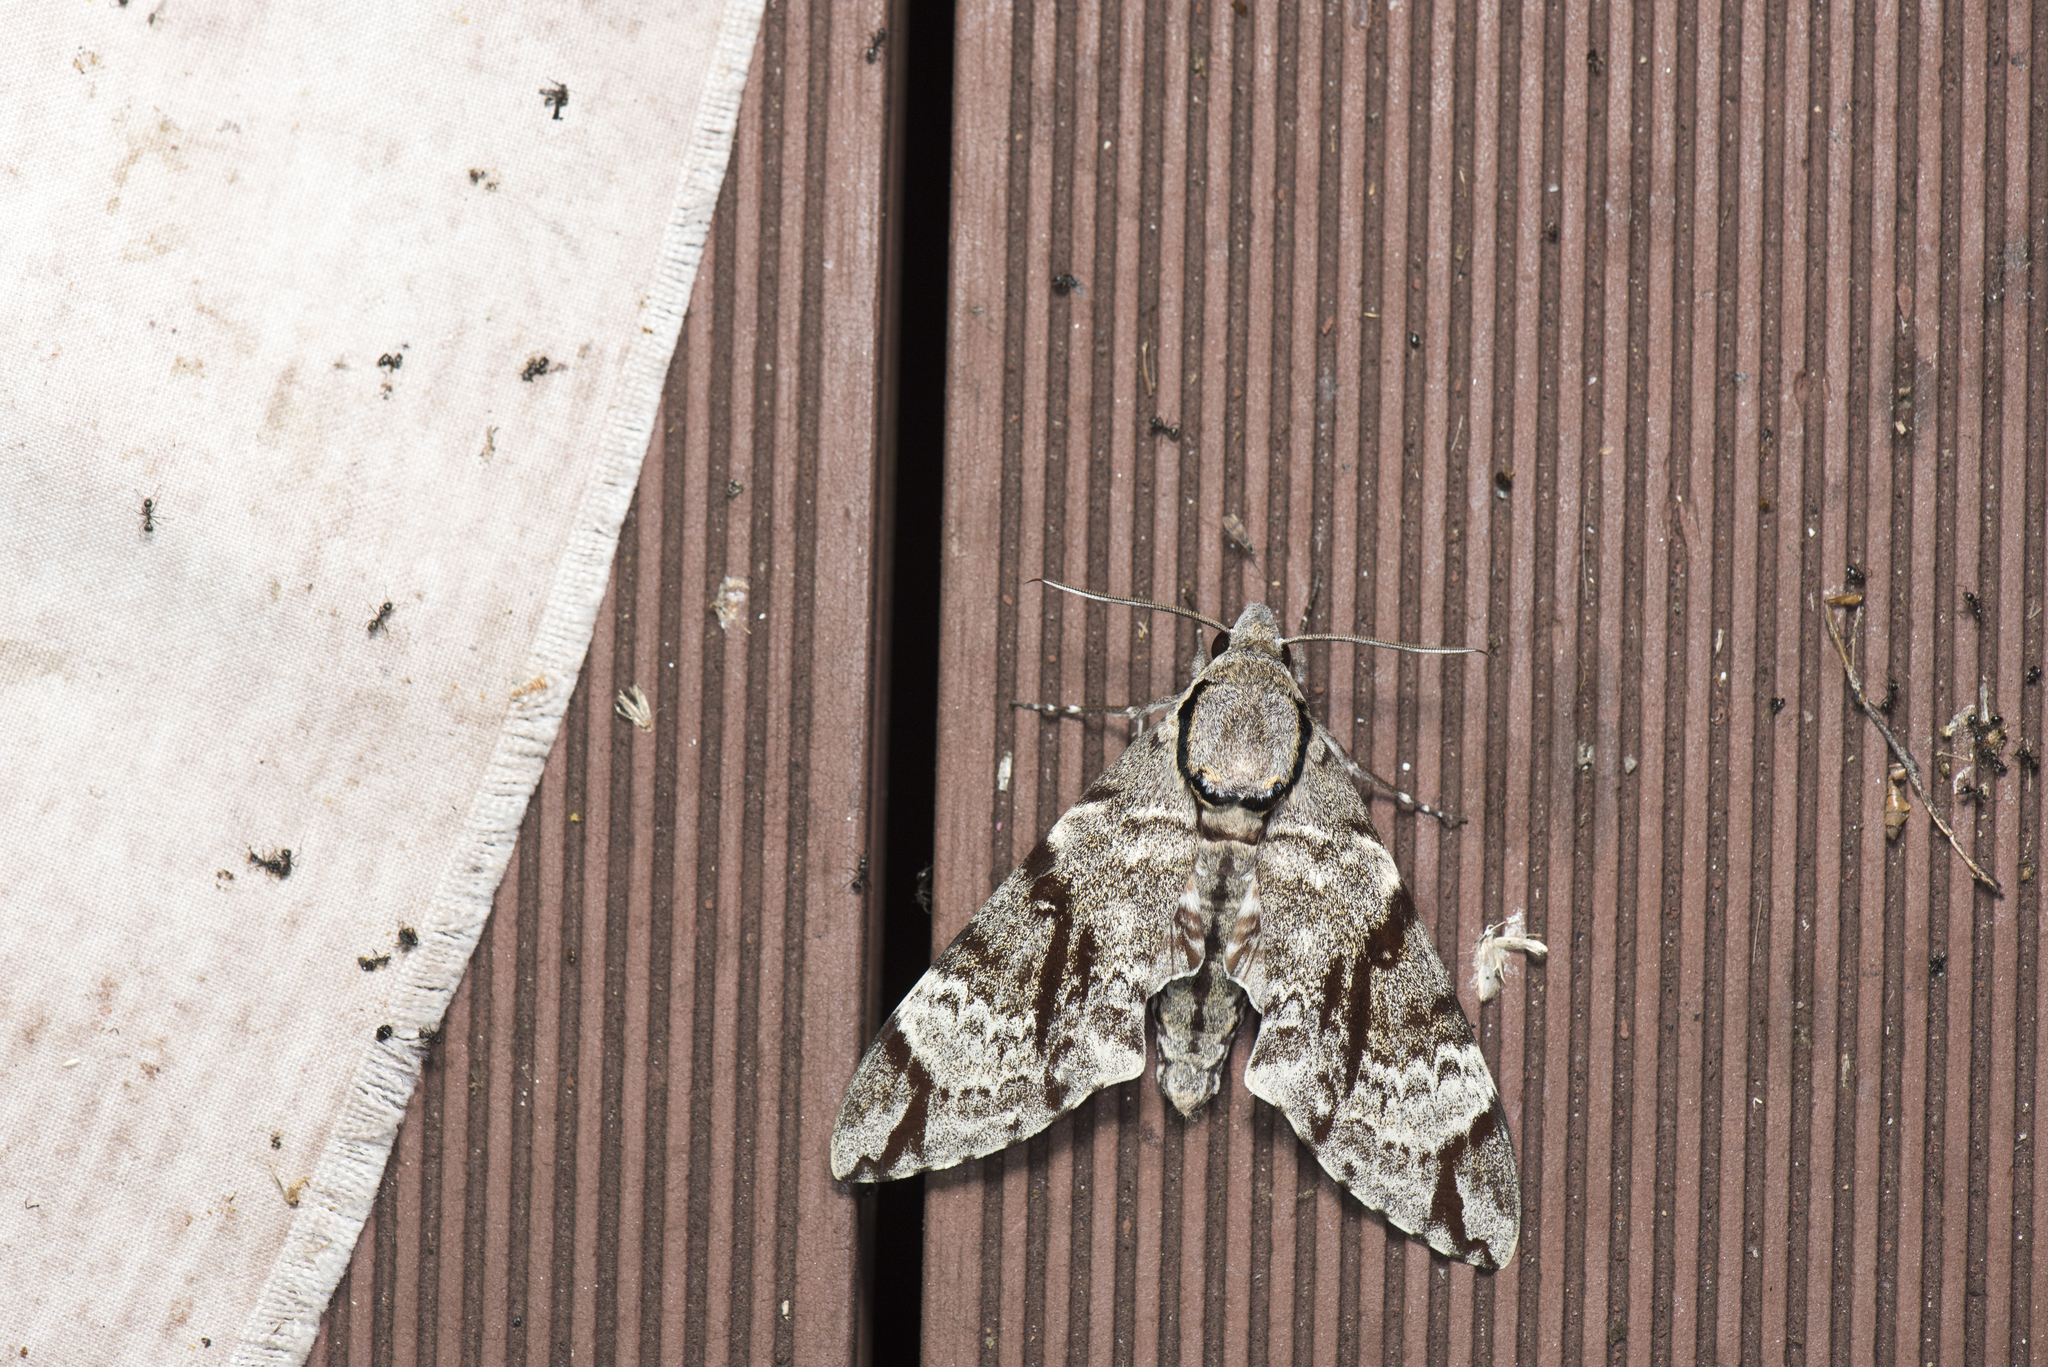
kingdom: Animalia
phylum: Arthropoda
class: Insecta
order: Lepidoptera
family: Sphingidae
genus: Notonagemia
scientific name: Notonagemia analis
